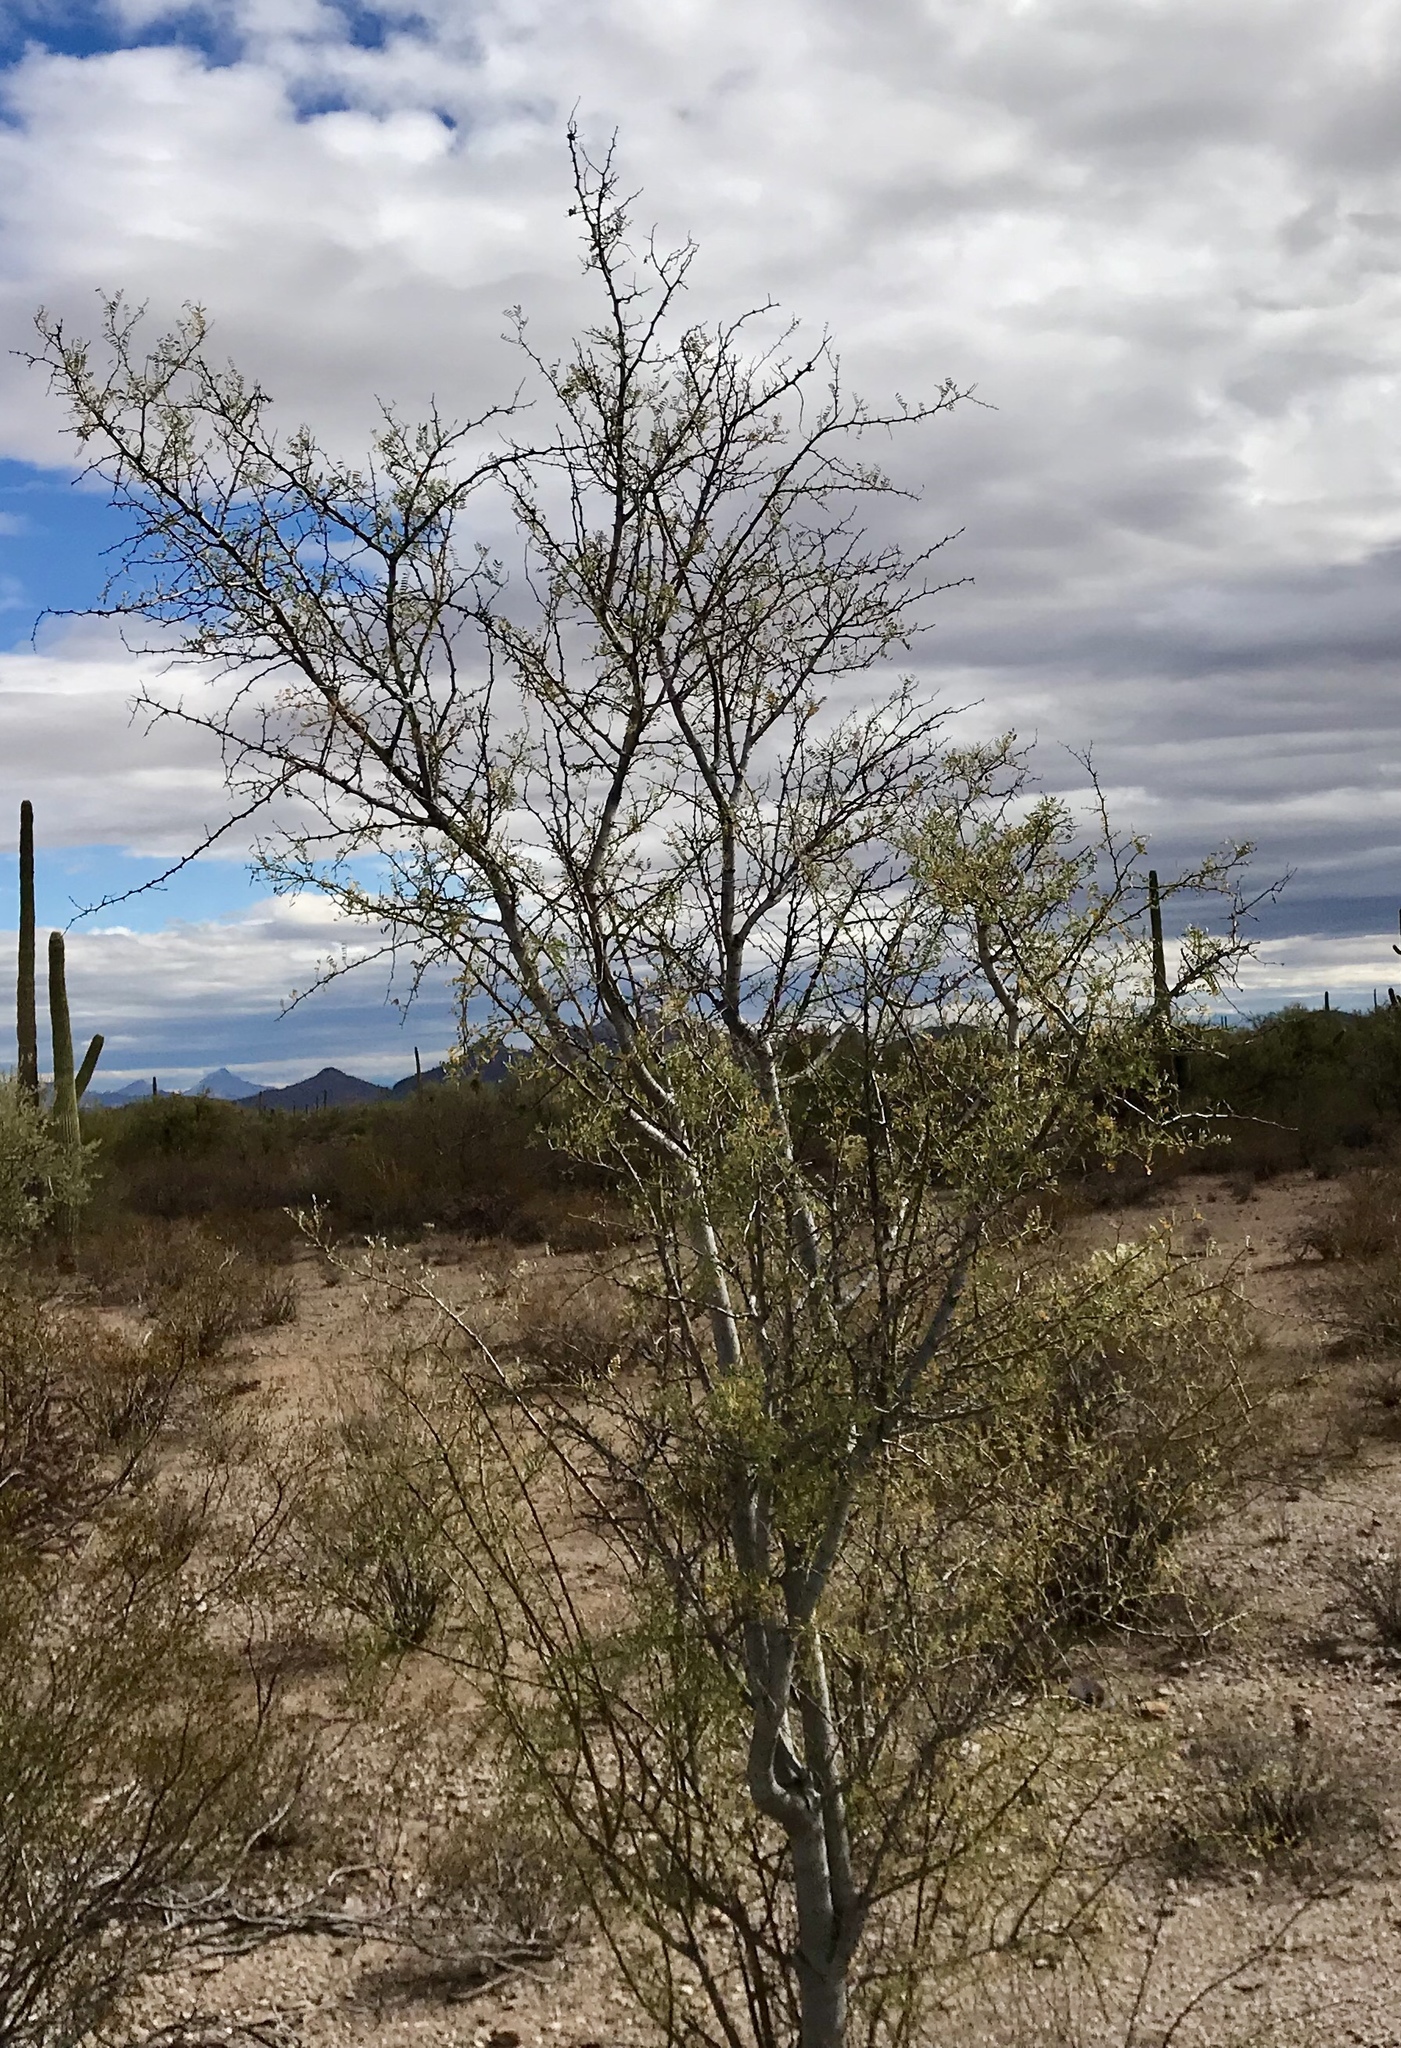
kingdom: Plantae
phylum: Tracheophyta
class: Magnoliopsida
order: Fabales
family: Fabaceae
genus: Olneya
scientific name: Olneya tesota
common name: Desert ironwood
